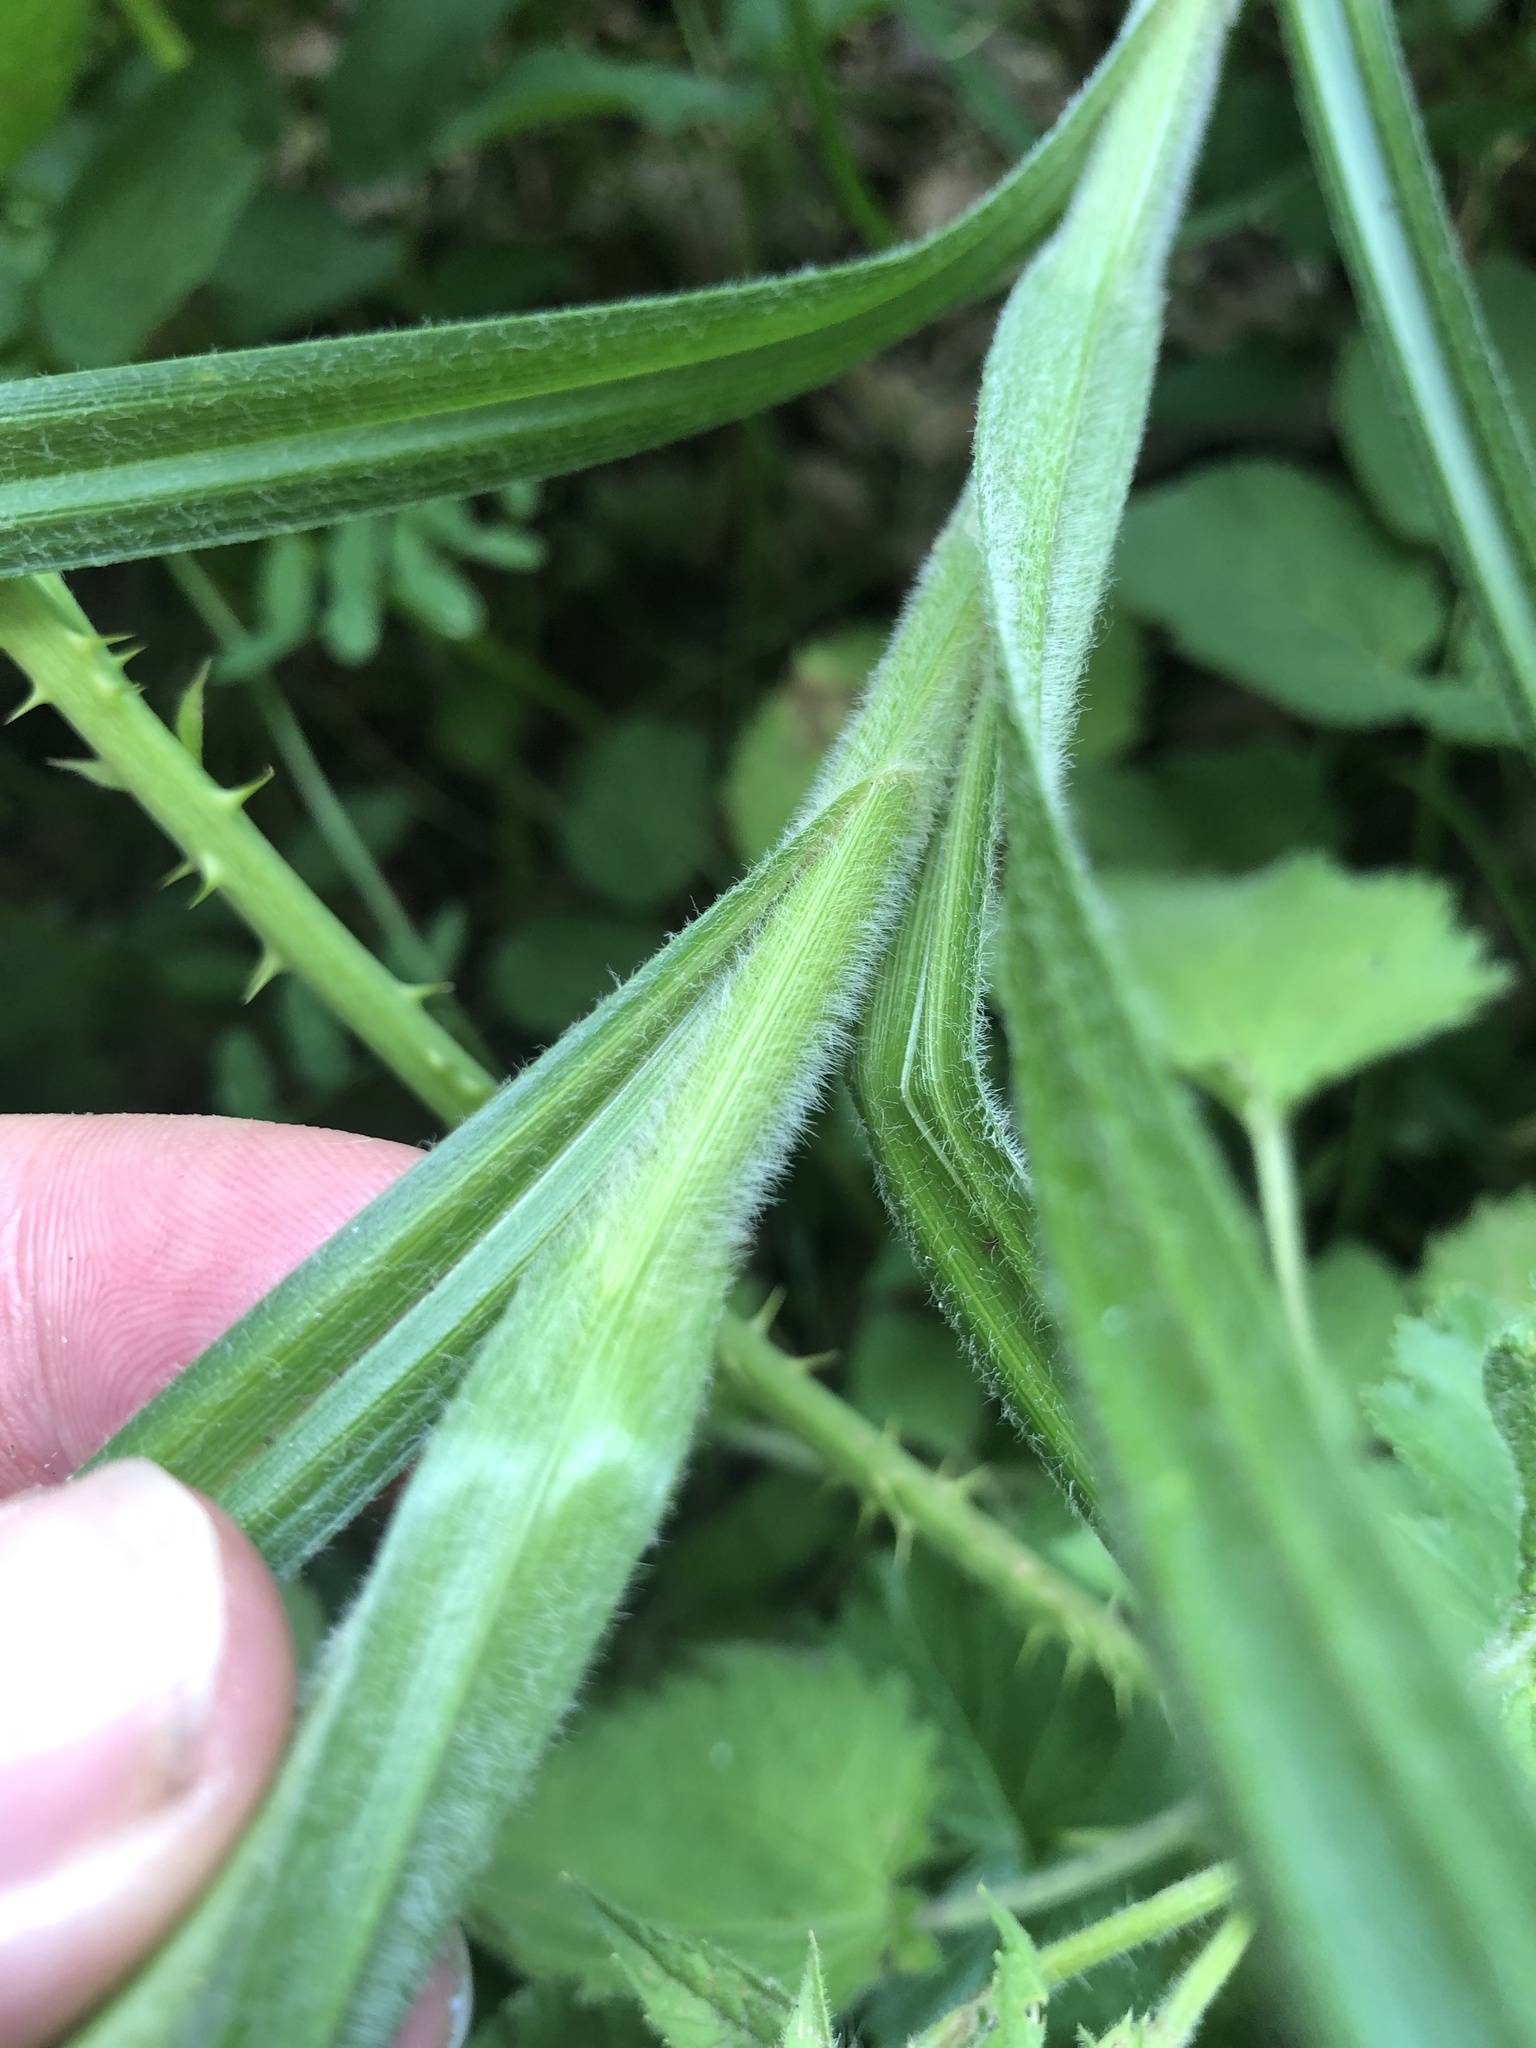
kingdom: Plantae
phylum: Tracheophyta
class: Liliopsida
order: Poales
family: Cyperaceae
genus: Carex
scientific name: Carex hirta
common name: Hairy sedge
